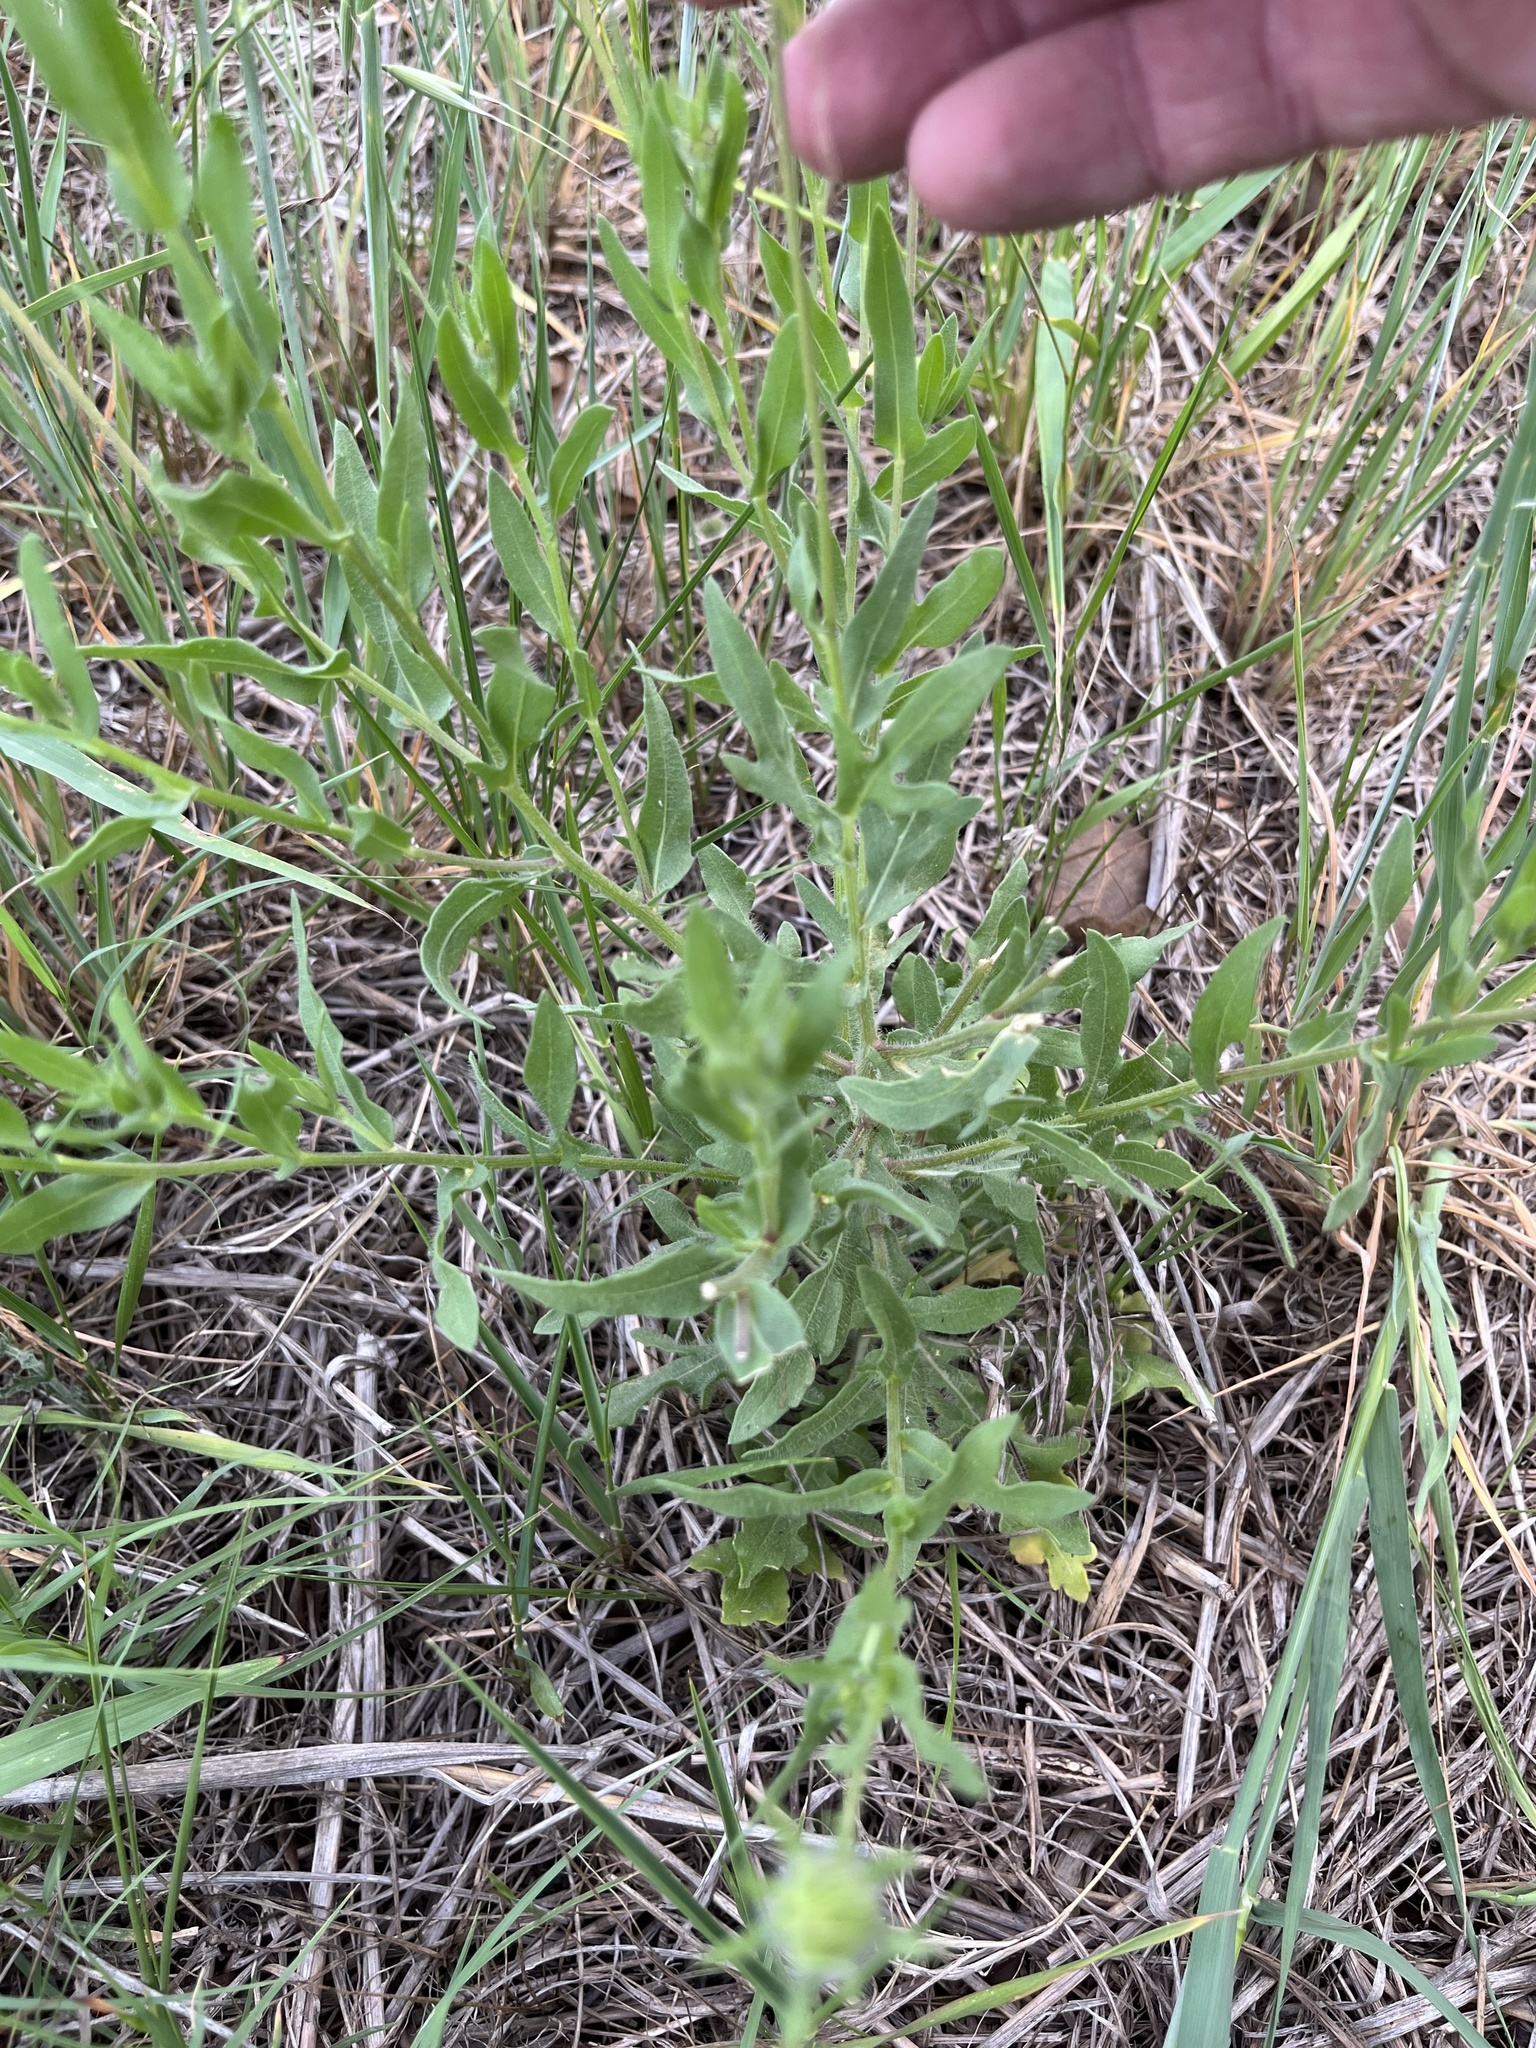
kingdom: Plantae
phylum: Tracheophyta
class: Magnoliopsida
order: Asterales
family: Asteraceae
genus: Gaillardia
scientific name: Gaillardia pulchella
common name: Firewheel
